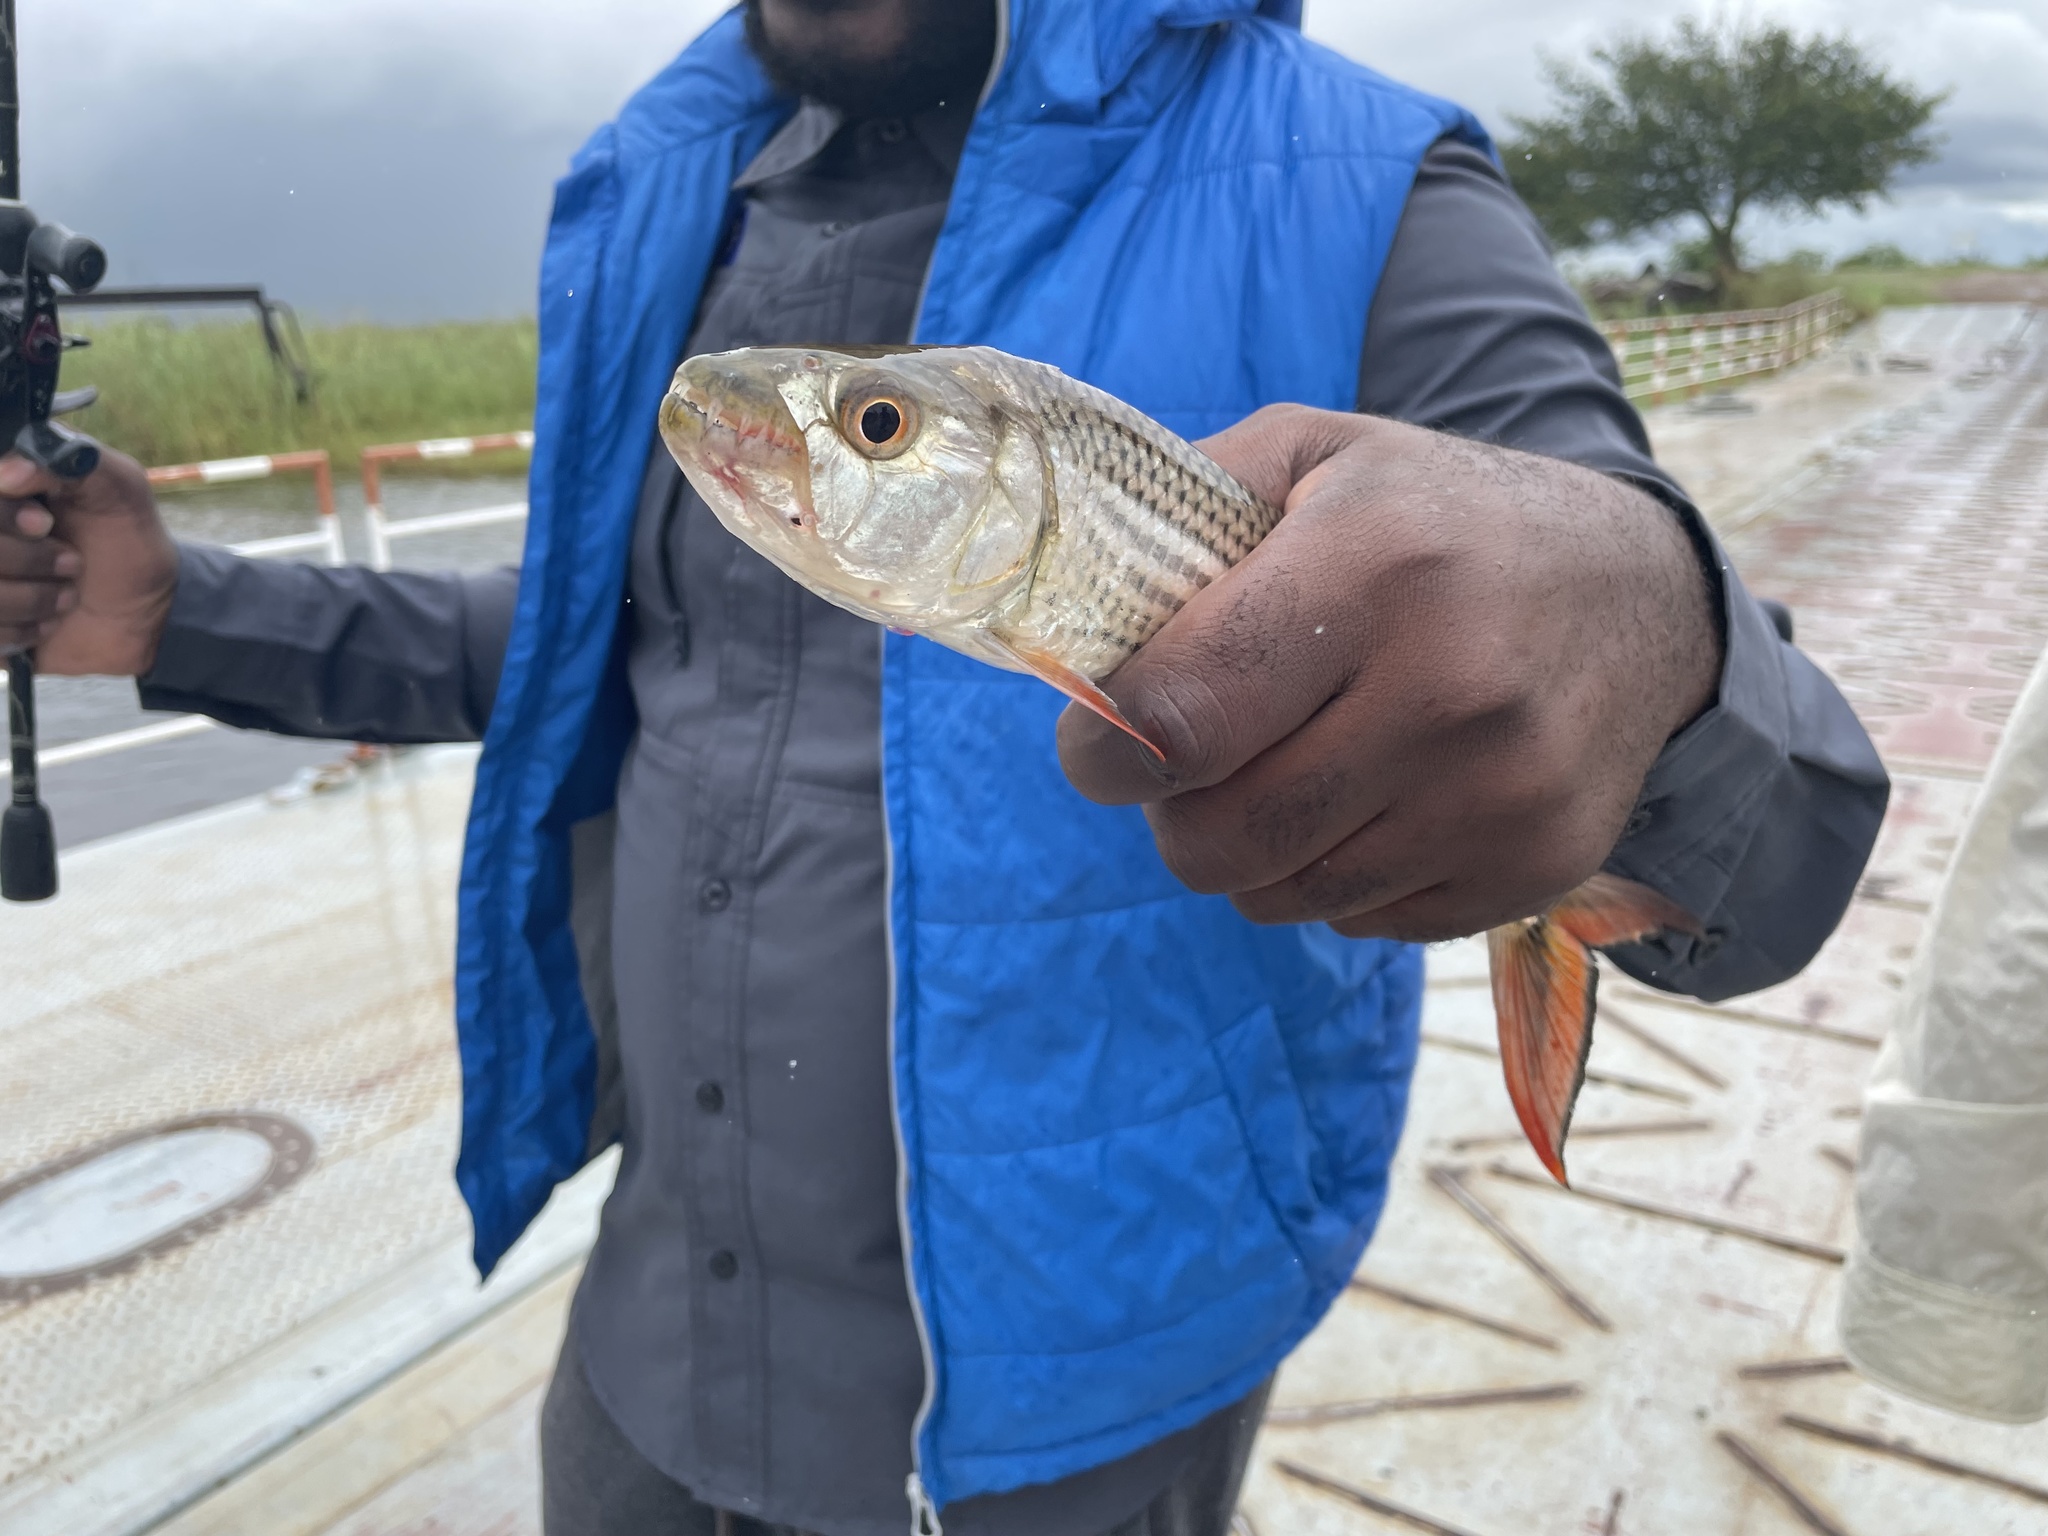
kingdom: Animalia
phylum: Chordata
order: Characiformes
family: Alestidae
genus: Hydrocynus
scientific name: Hydrocynus vittatus
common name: Tigerfish
